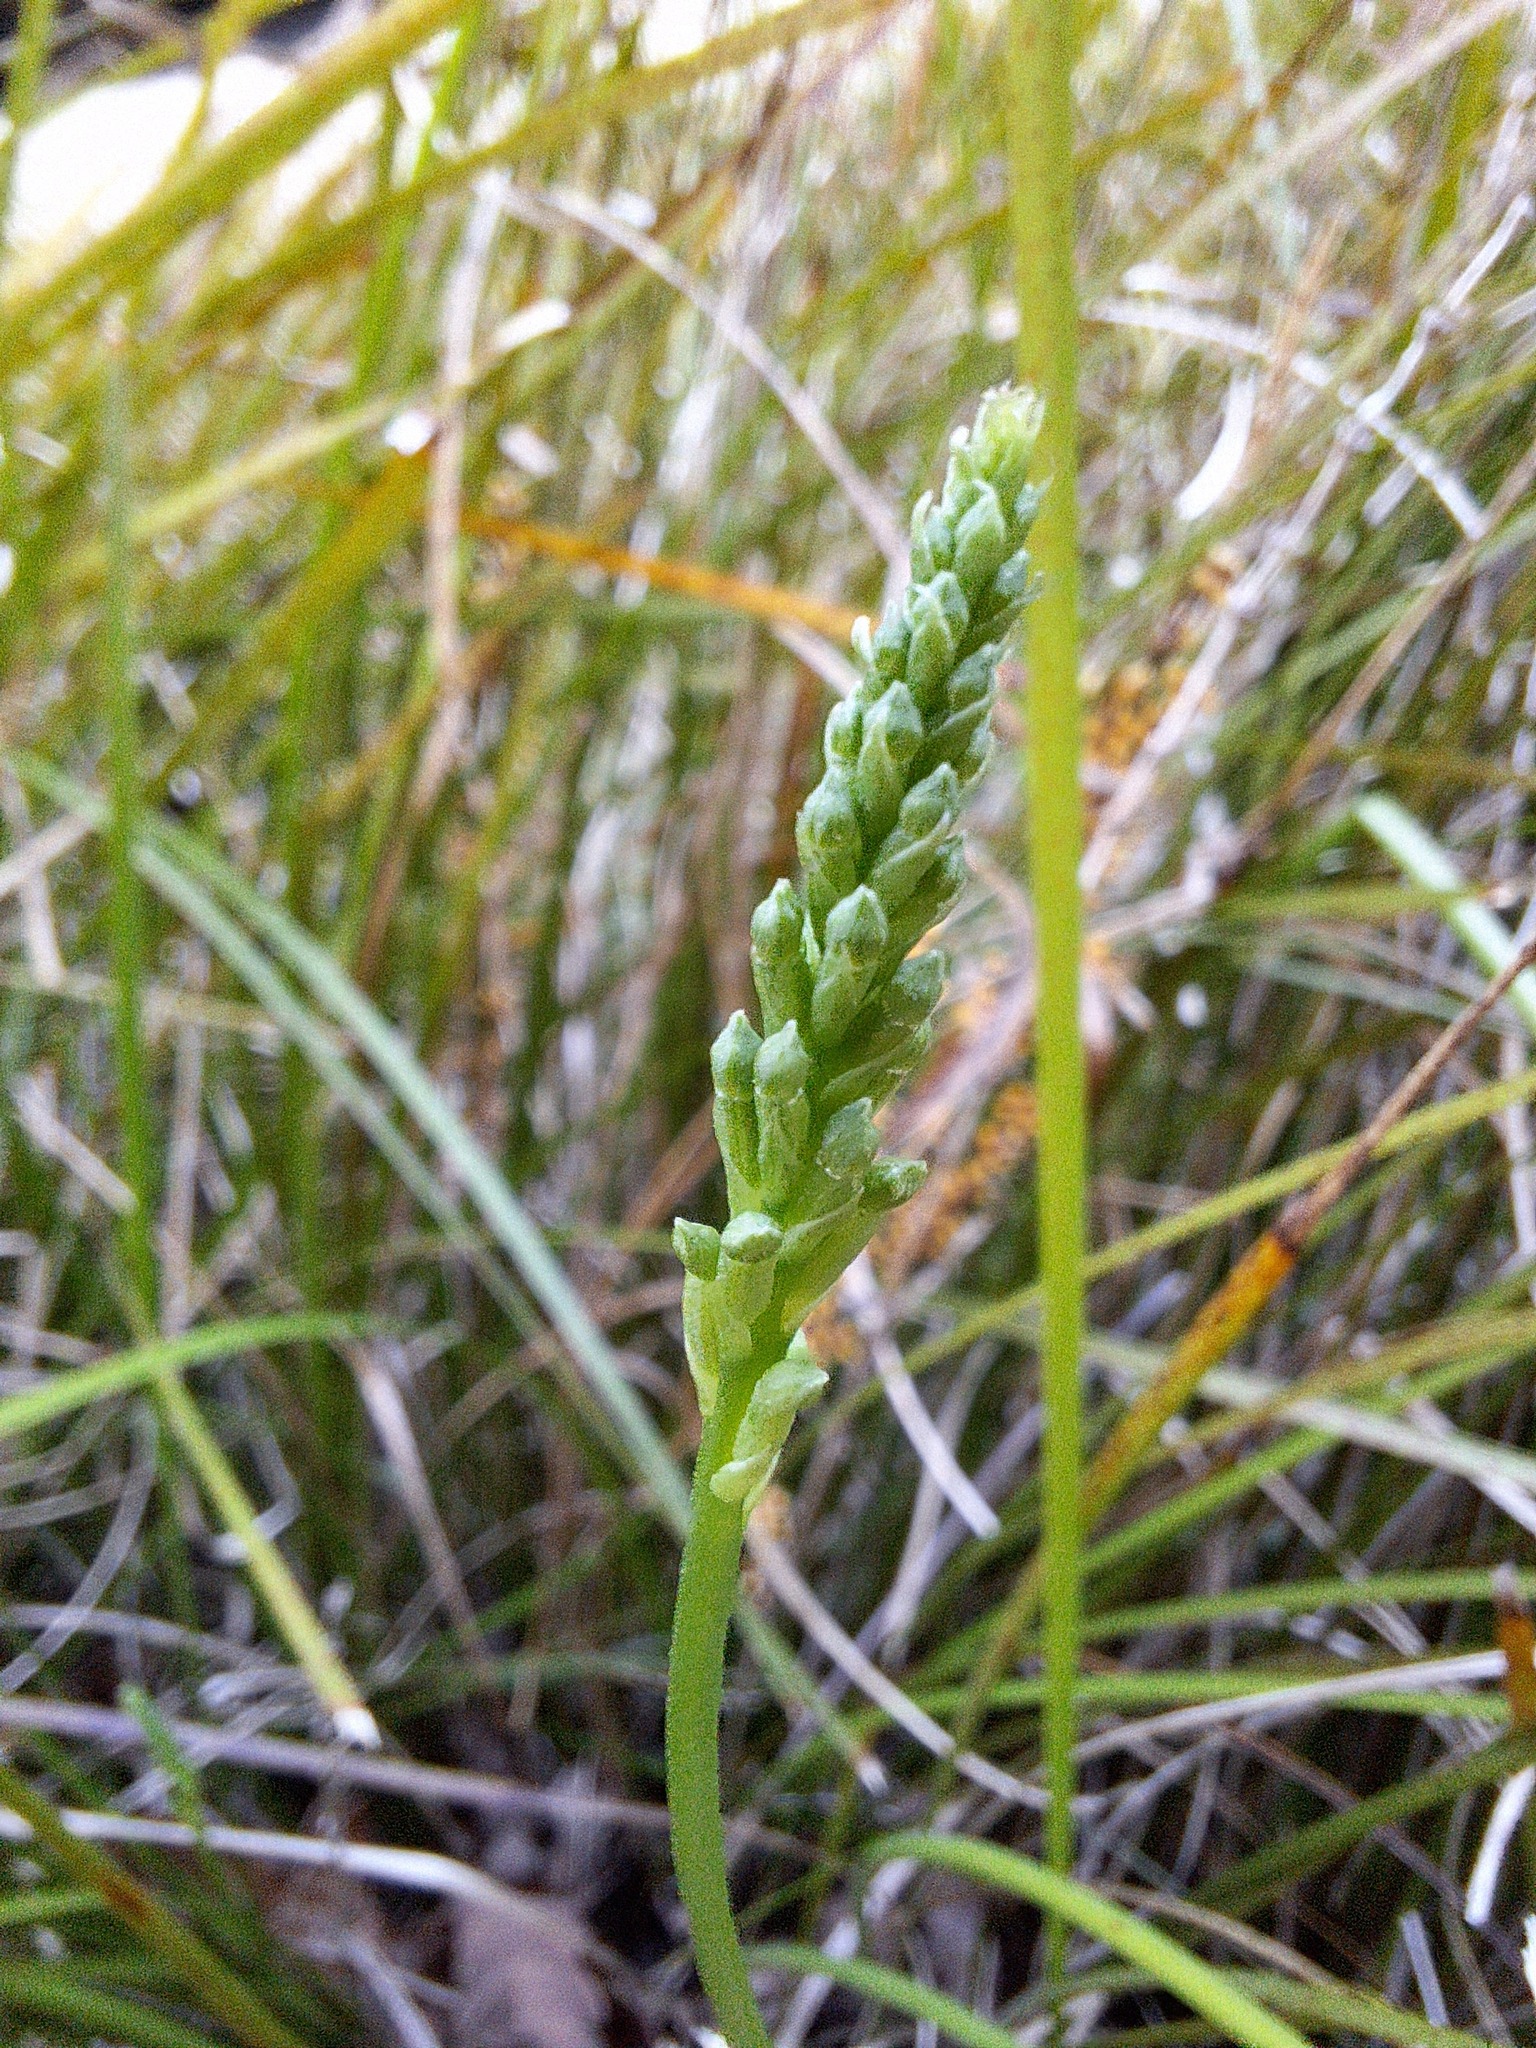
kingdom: Plantae
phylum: Tracheophyta
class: Liliopsida
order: Asparagales
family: Orchidaceae
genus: Microtis
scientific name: Microtis
